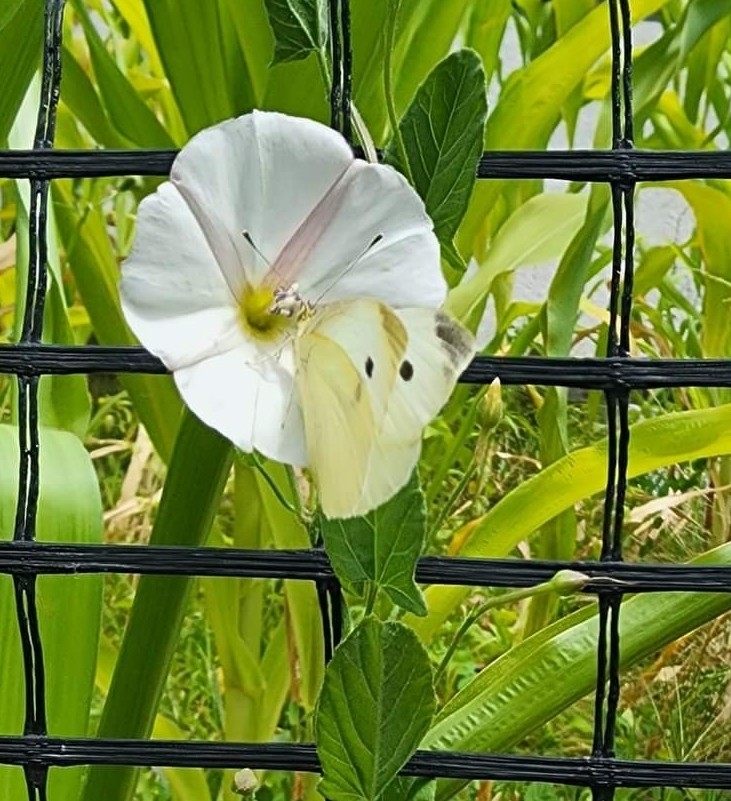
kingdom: Animalia
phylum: Arthropoda
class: Insecta
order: Lepidoptera
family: Pieridae
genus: Pieris
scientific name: Pieris rapae
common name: Small white
